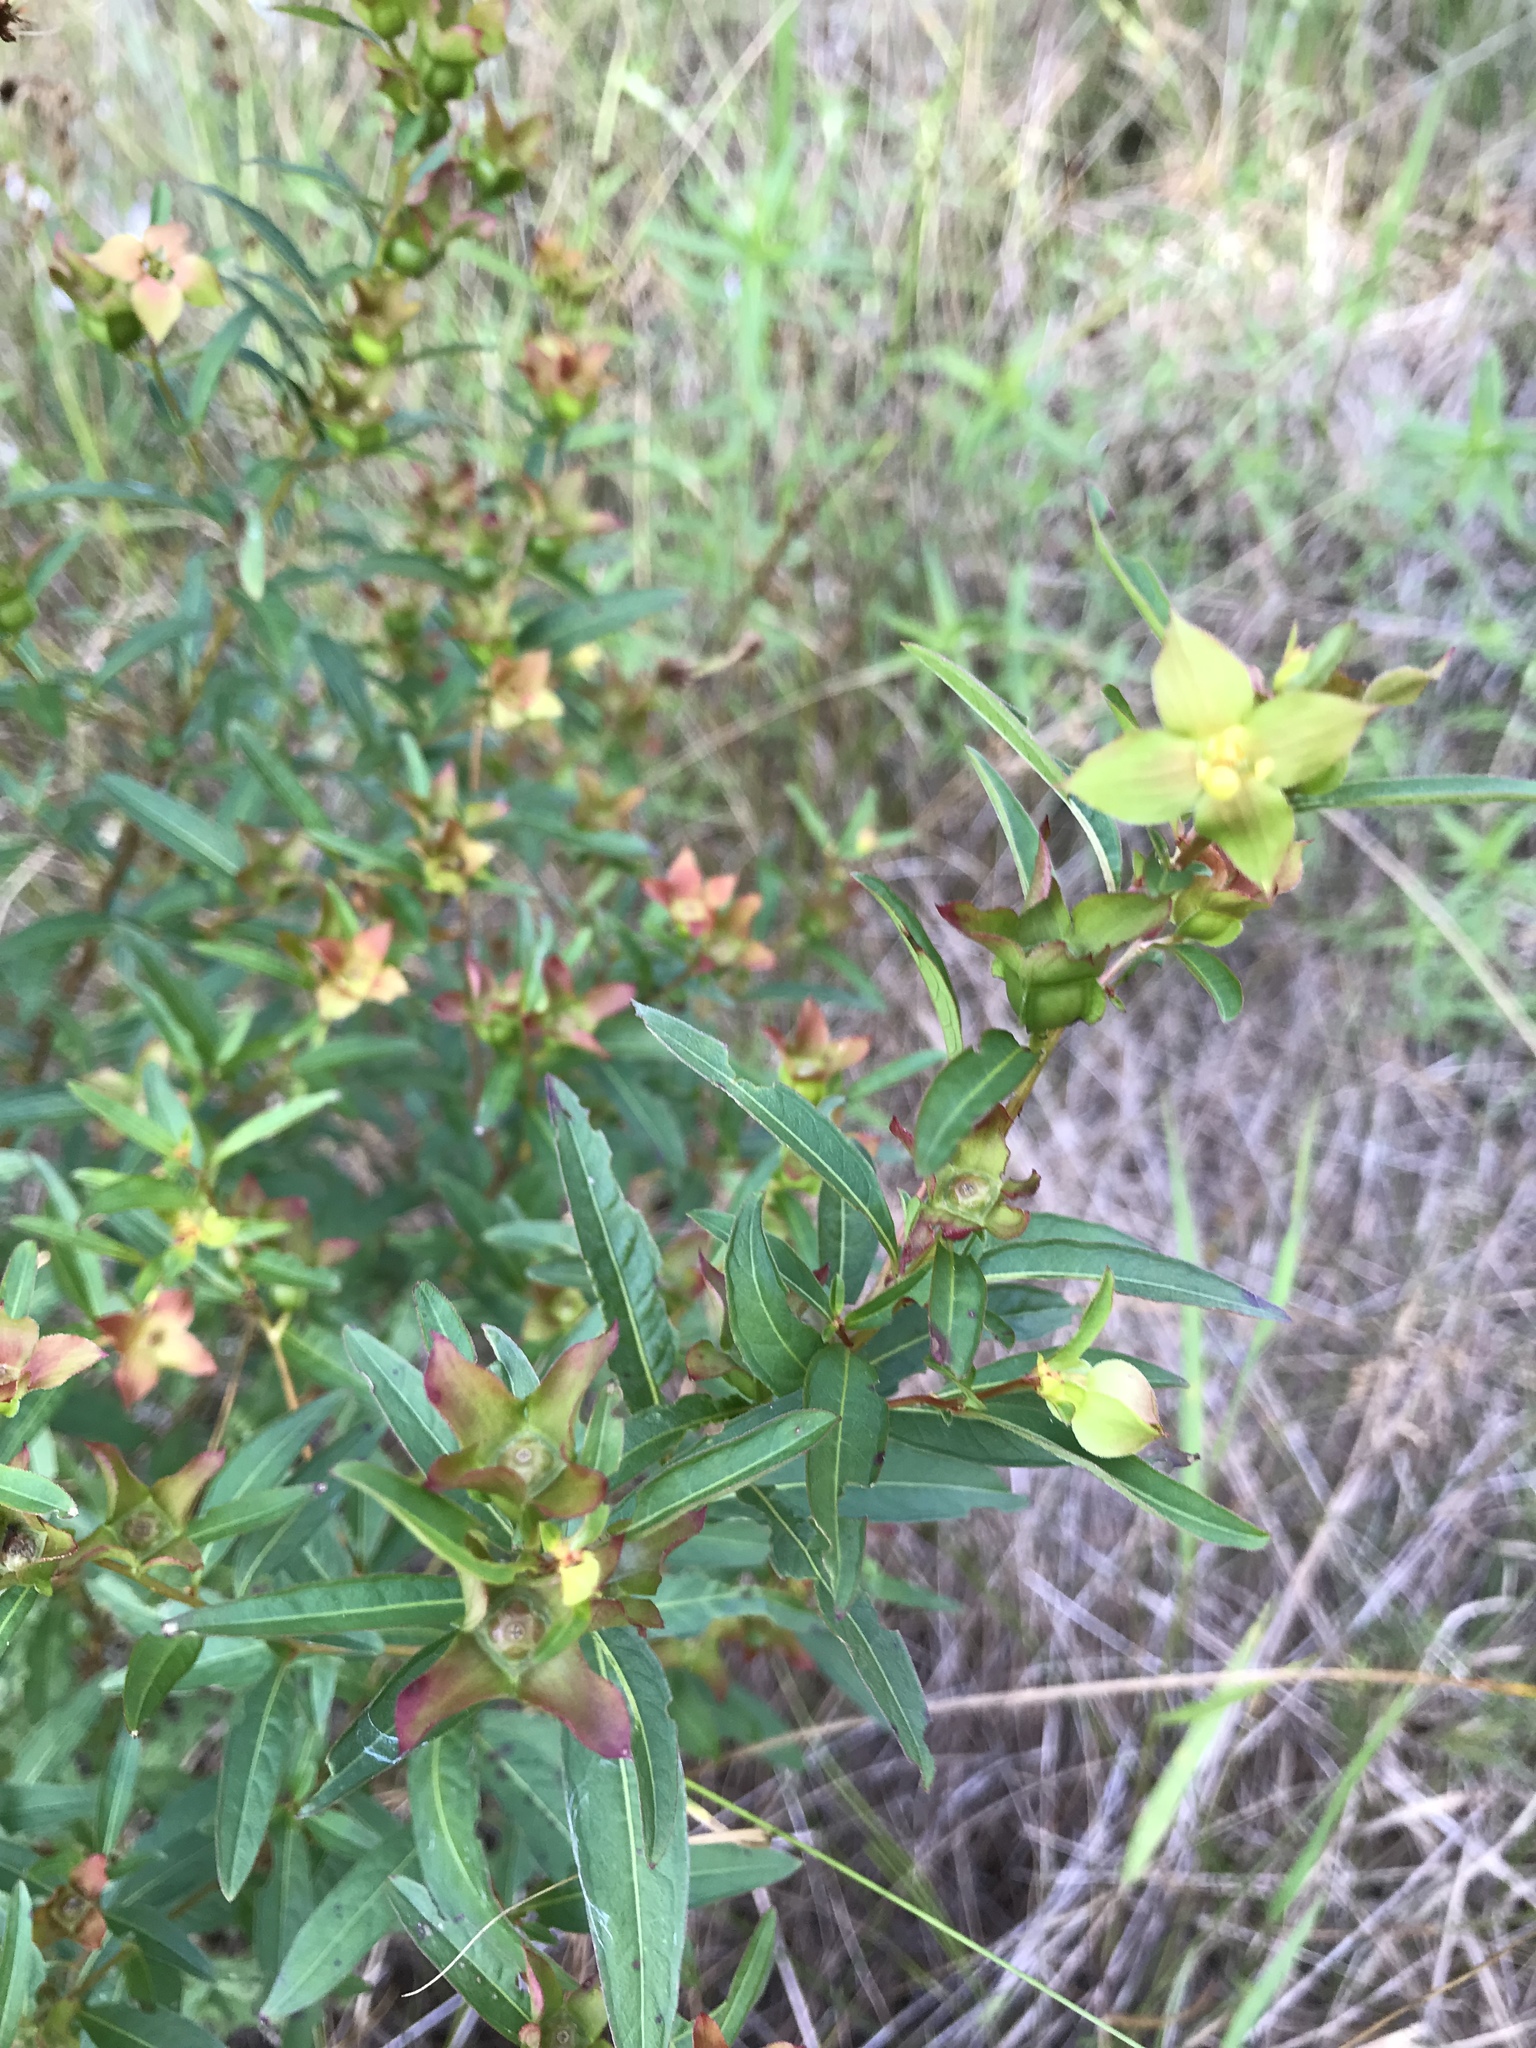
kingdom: Plantae
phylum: Tracheophyta
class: Magnoliopsida
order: Myrtales
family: Onagraceae
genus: Ludwigia
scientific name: Ludwigia alternifolia
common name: Rattlebox
